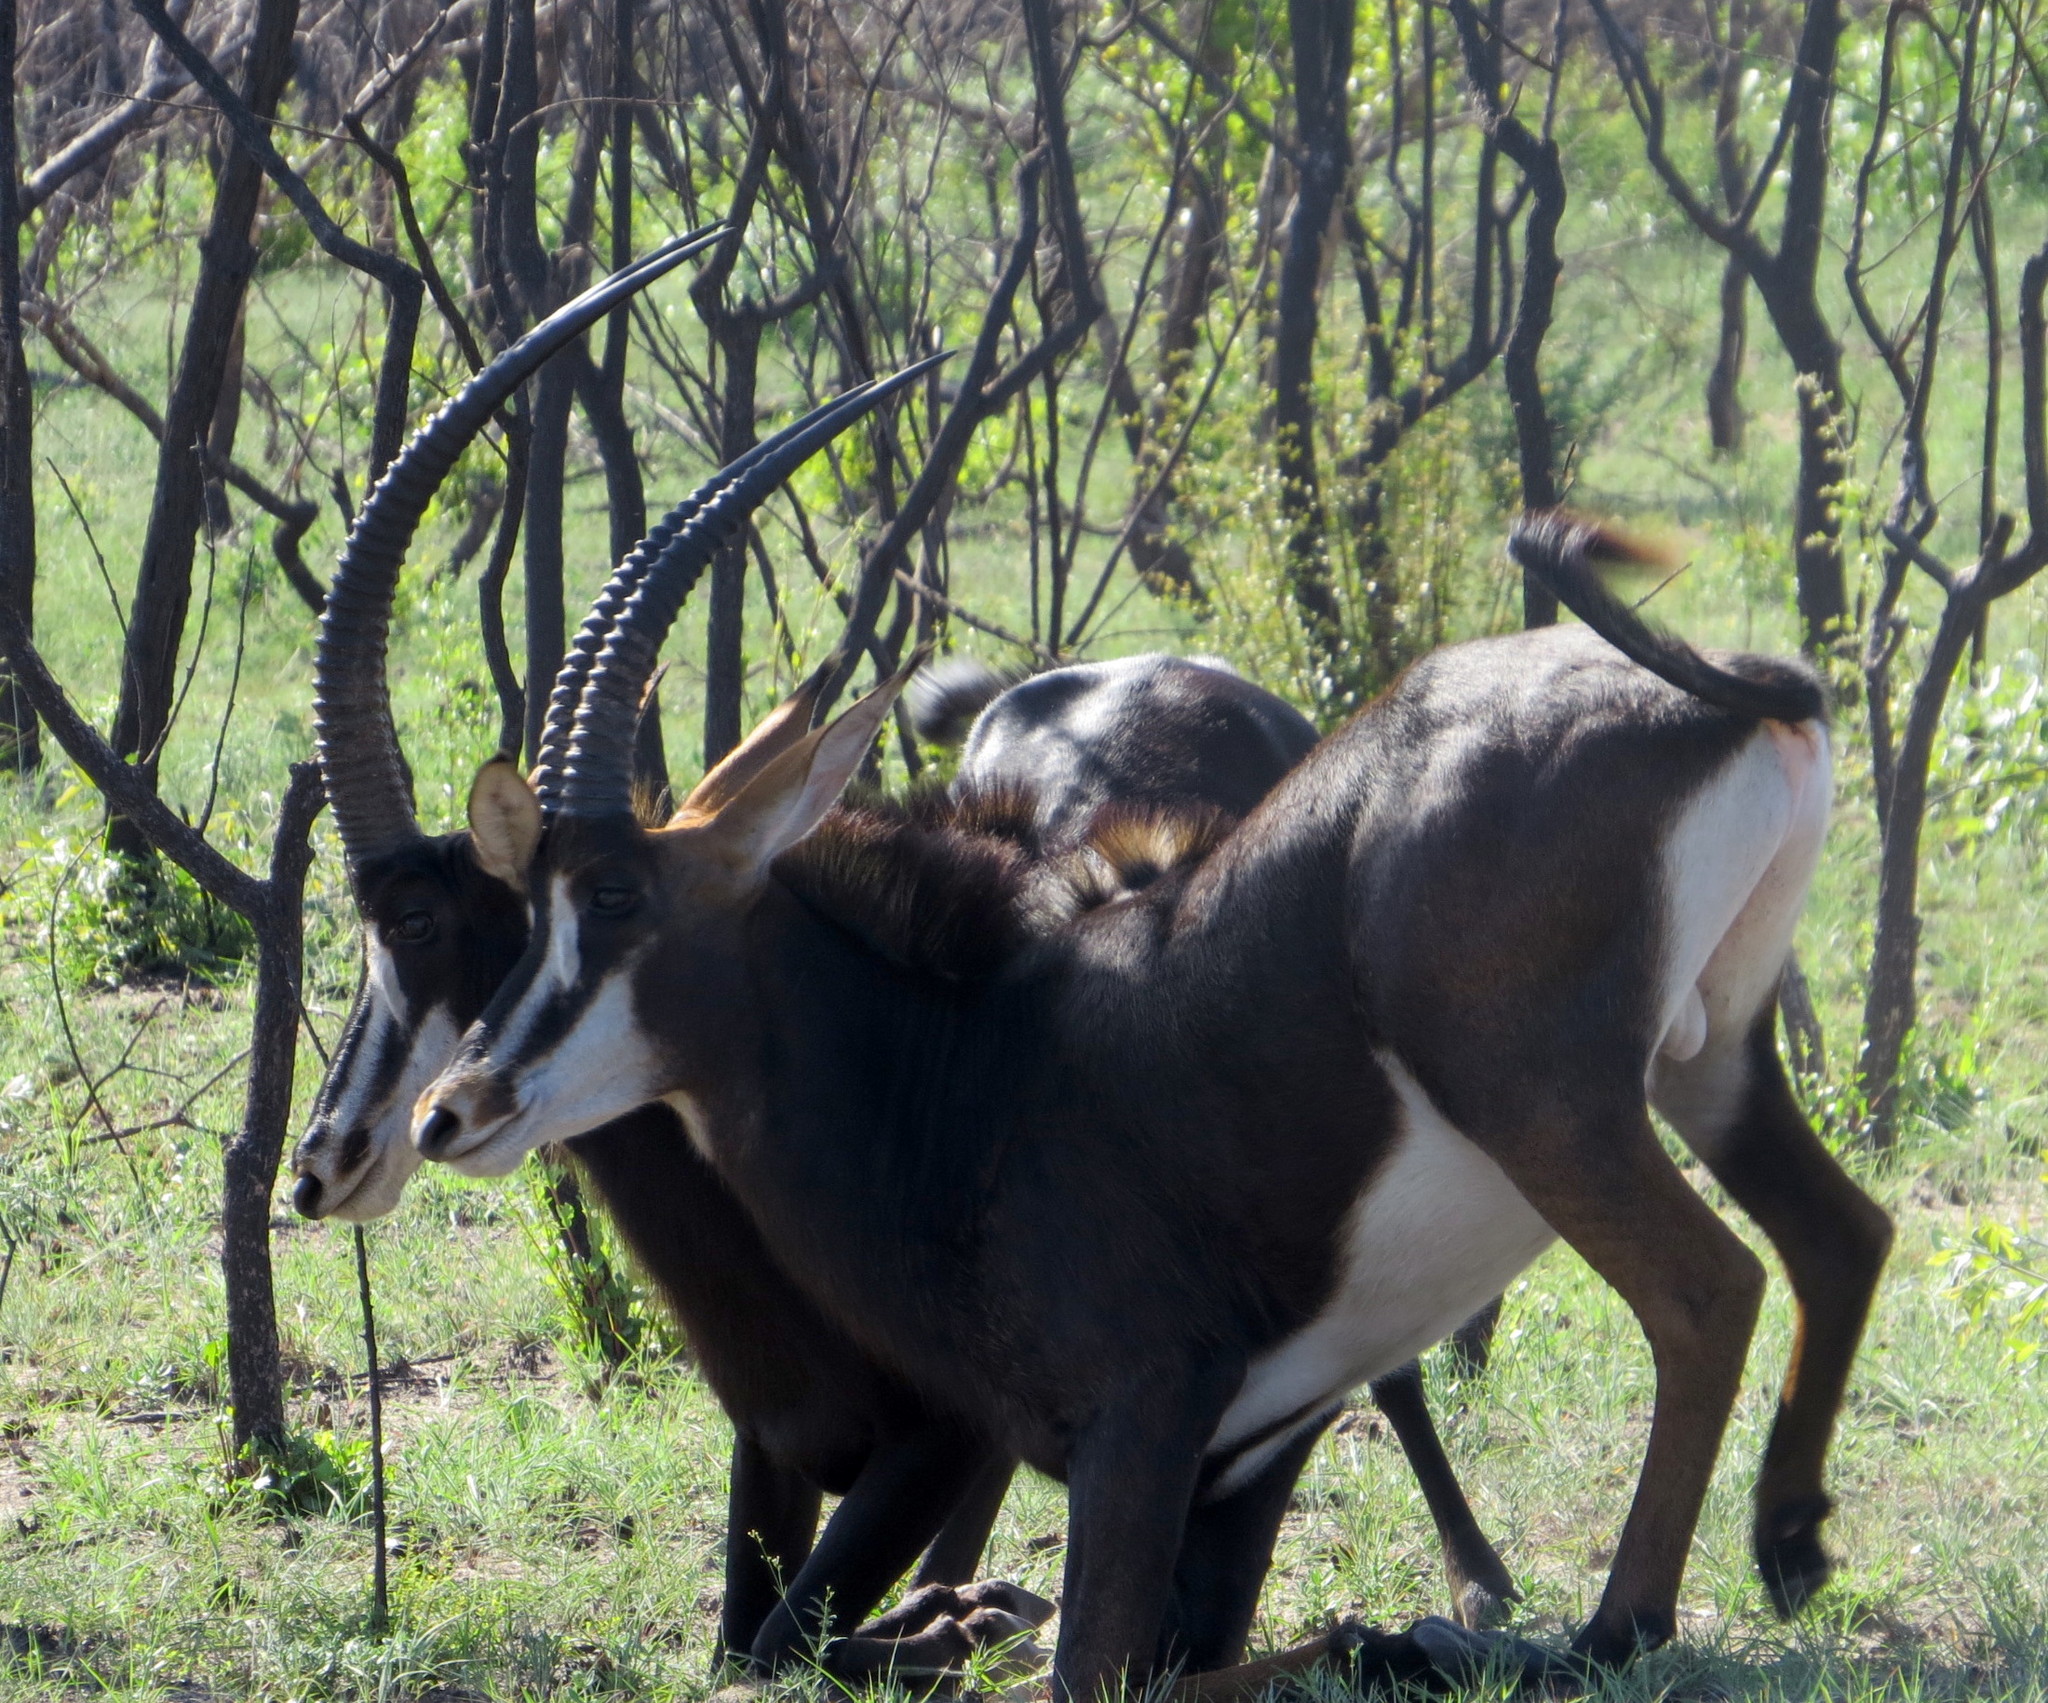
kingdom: Animalia
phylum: Chordata
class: Mammalia
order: Artiodactyla
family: Bovidae
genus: Hippotragus
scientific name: Hippotragus niger
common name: Sable antelope
